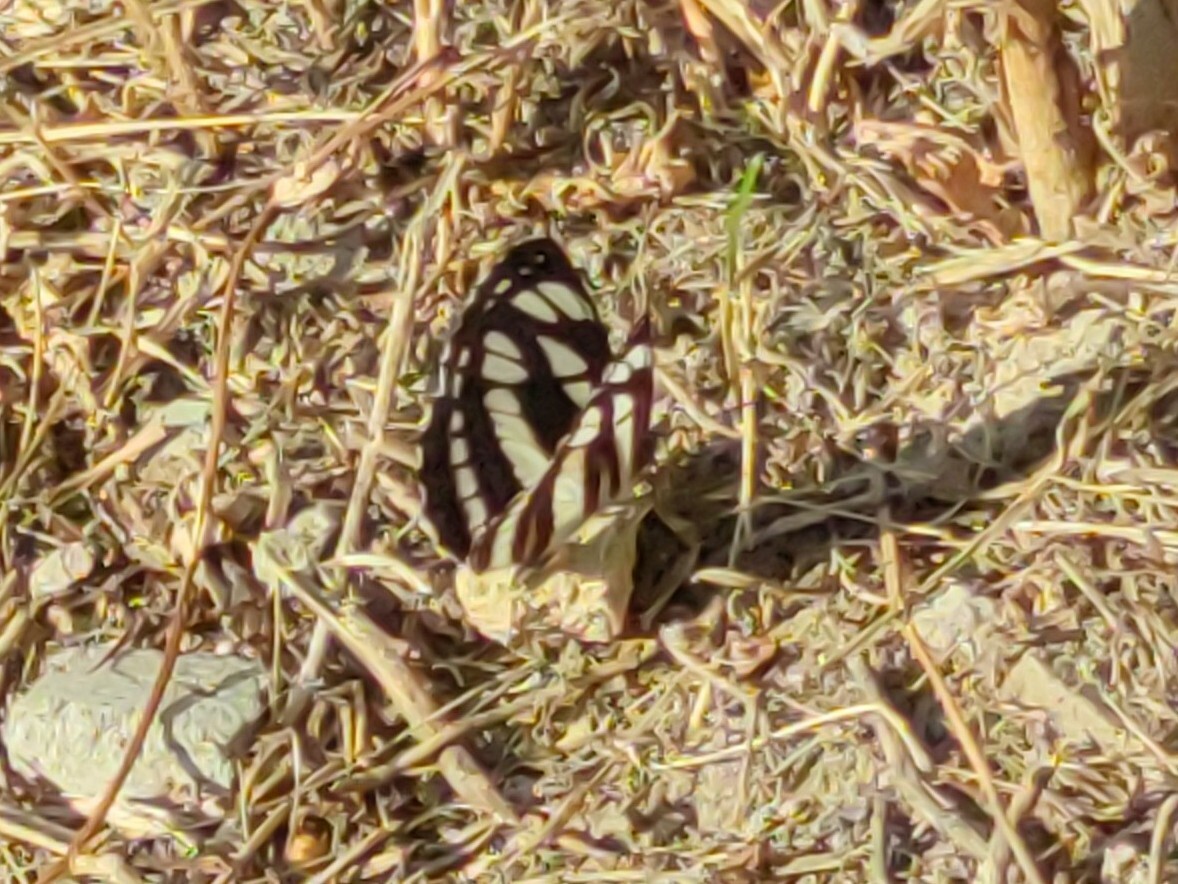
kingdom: Animalia
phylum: Arthropoda
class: Insecta
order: Lepidoptera
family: Nymphalidae
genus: Neptis
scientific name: Neptis sappho
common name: Common glider
